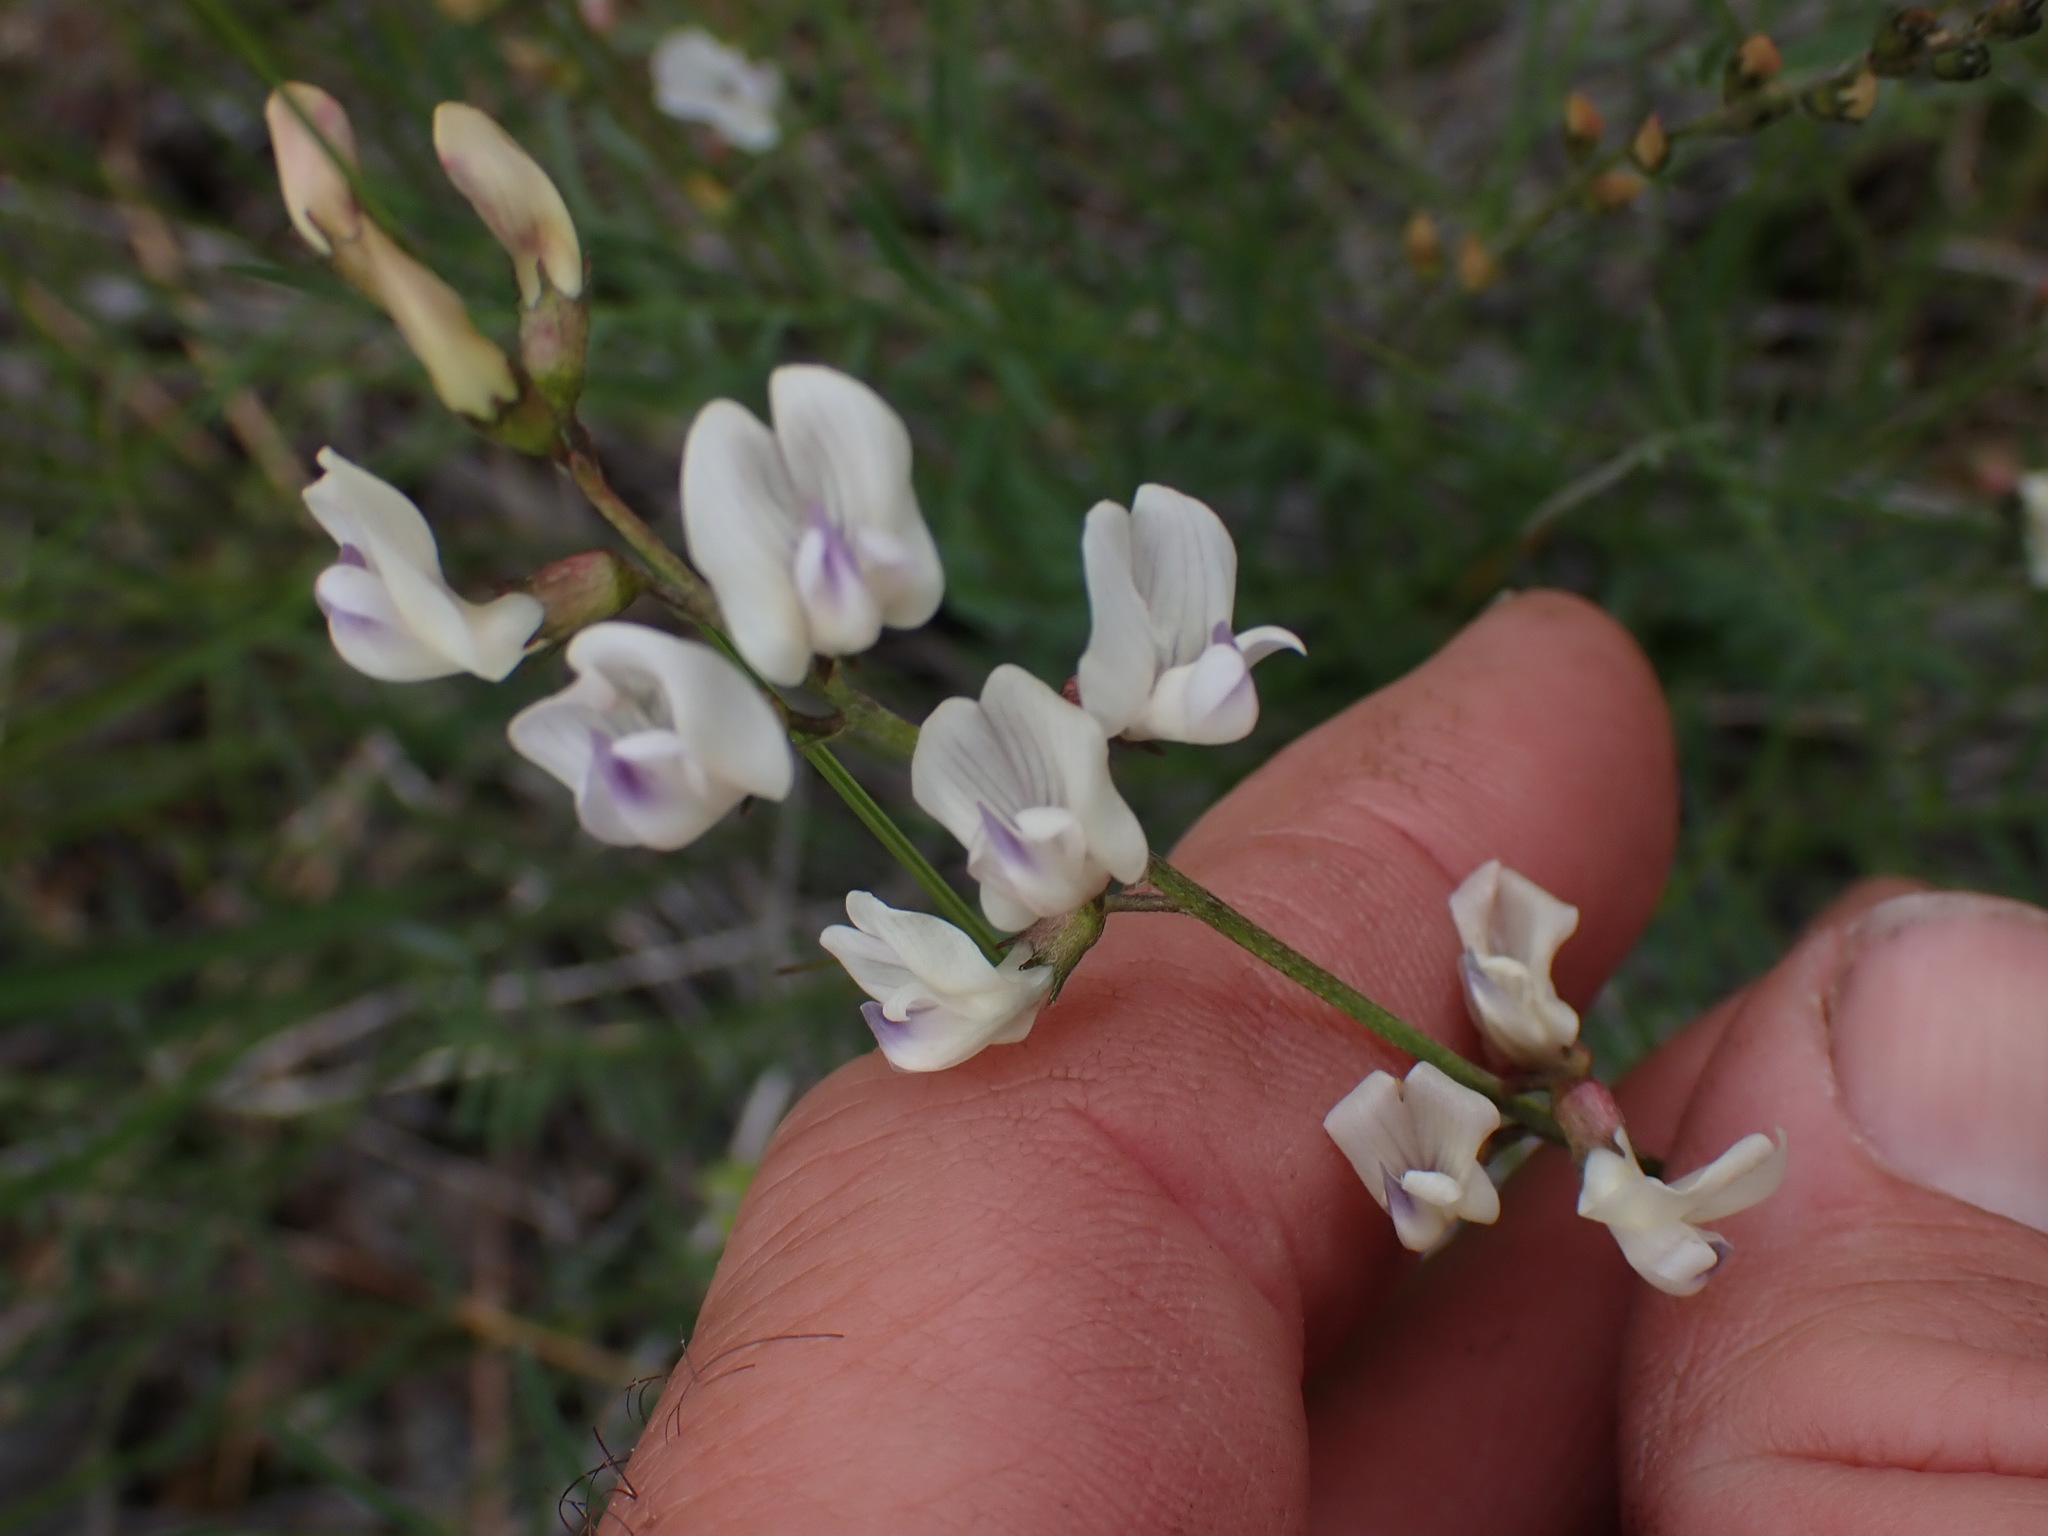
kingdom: Plantae
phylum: Tracheophyta
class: Magnoliopsida
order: Fabales
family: Fabaceae
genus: Astragalus
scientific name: Astragalus miser
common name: Timber milkvetch
